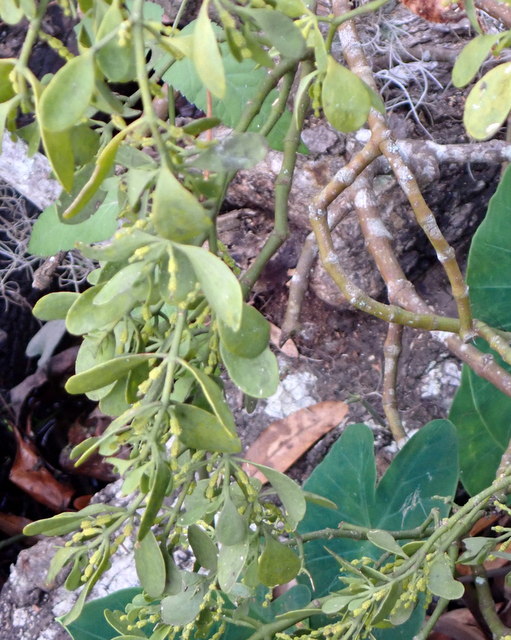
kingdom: Plantae
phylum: Tracheophyta
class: Magnoliopsida
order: Santalales
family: Viscaceae
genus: Phoradendron
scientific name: Phoradendron leucarpum
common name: Pacific mistletoe
